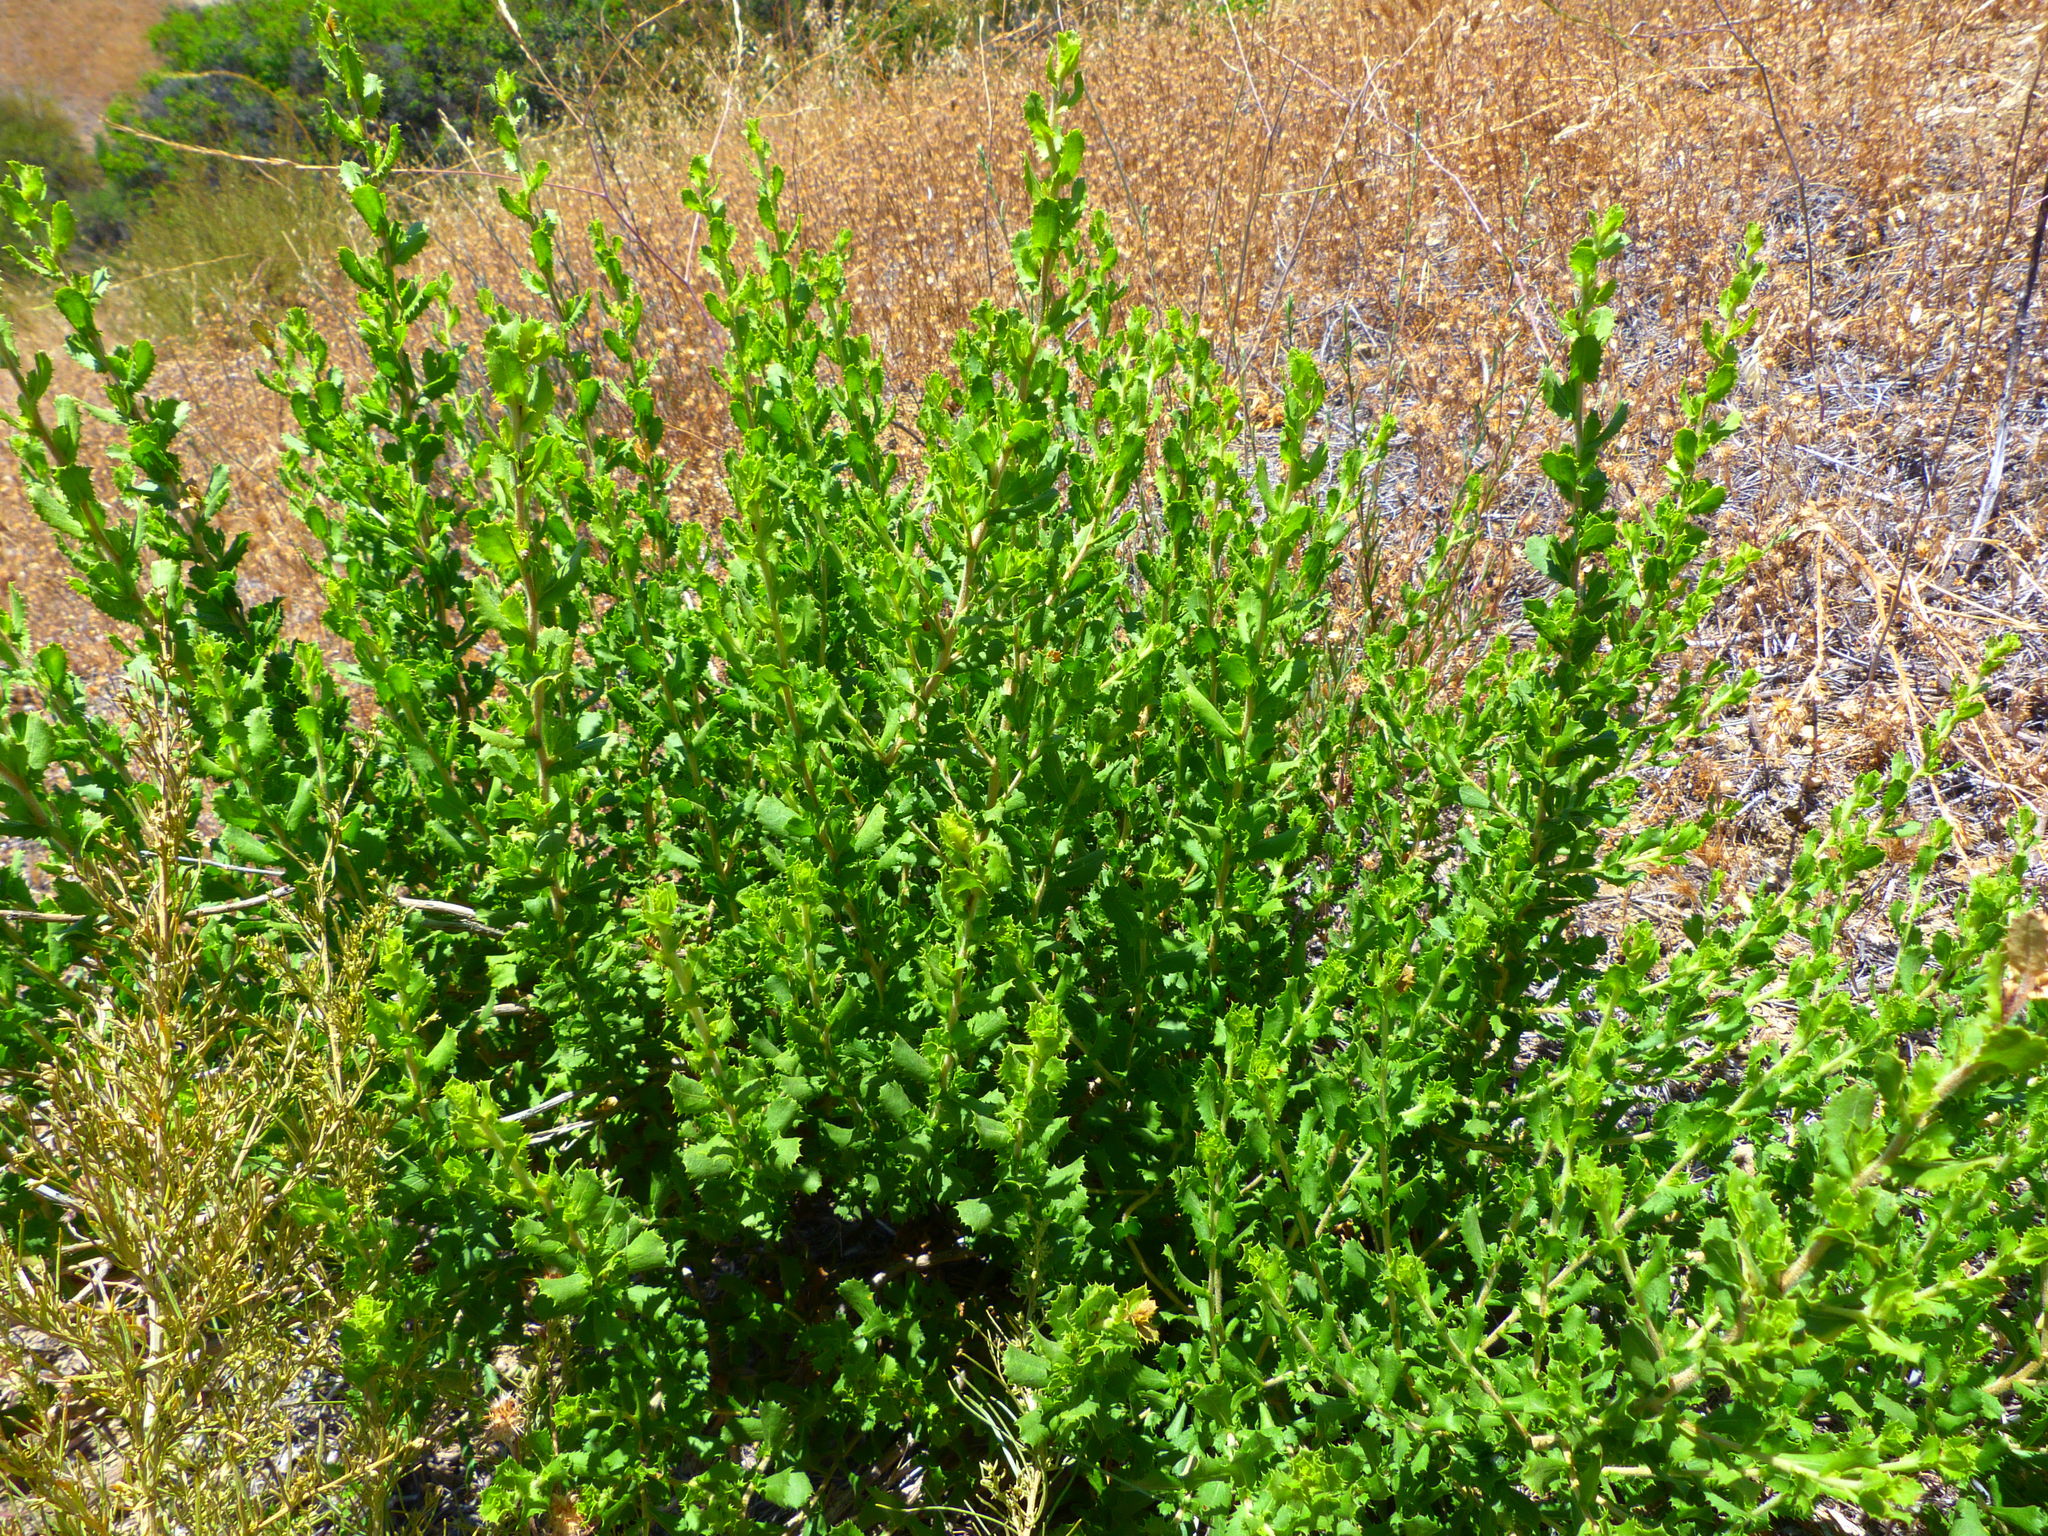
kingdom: Plantae
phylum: Tracheophyta
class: Magnoliopsida
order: Asterales
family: Asteraceae
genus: Baccharis
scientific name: Baccharis pilularis
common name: Coyotebrush
